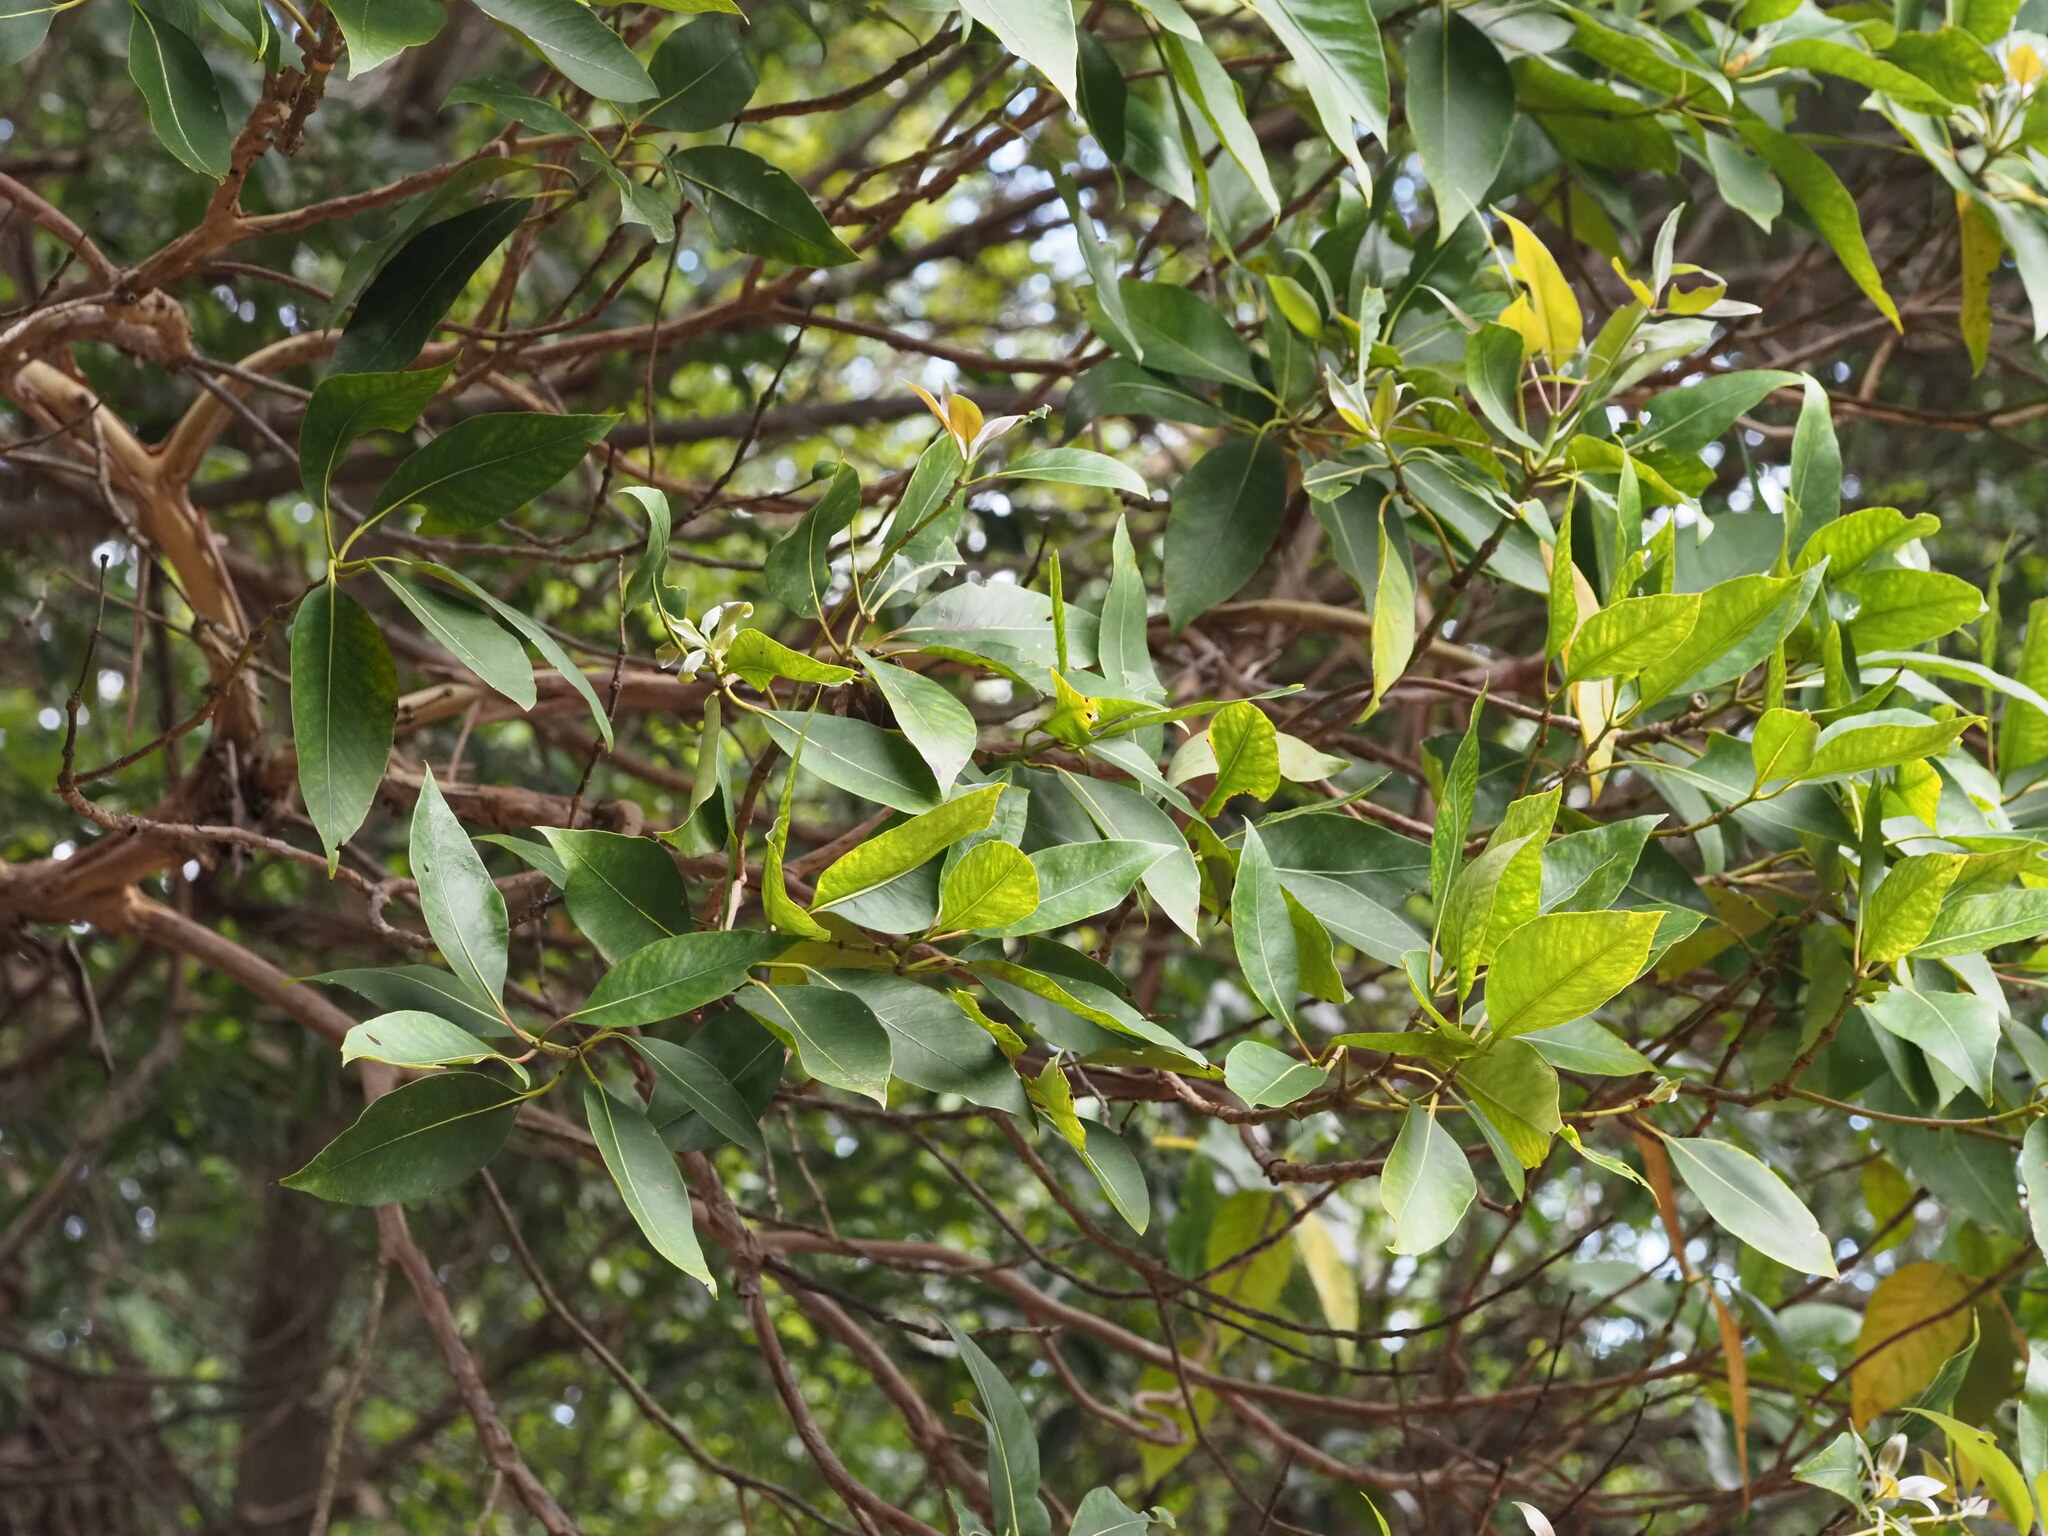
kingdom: Plantae
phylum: Tracheophyta
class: Magnoliopsida
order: Myrtales
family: Myrtaceae
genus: Lophostemon
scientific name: Lophostemon confertus
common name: Brisbane box
